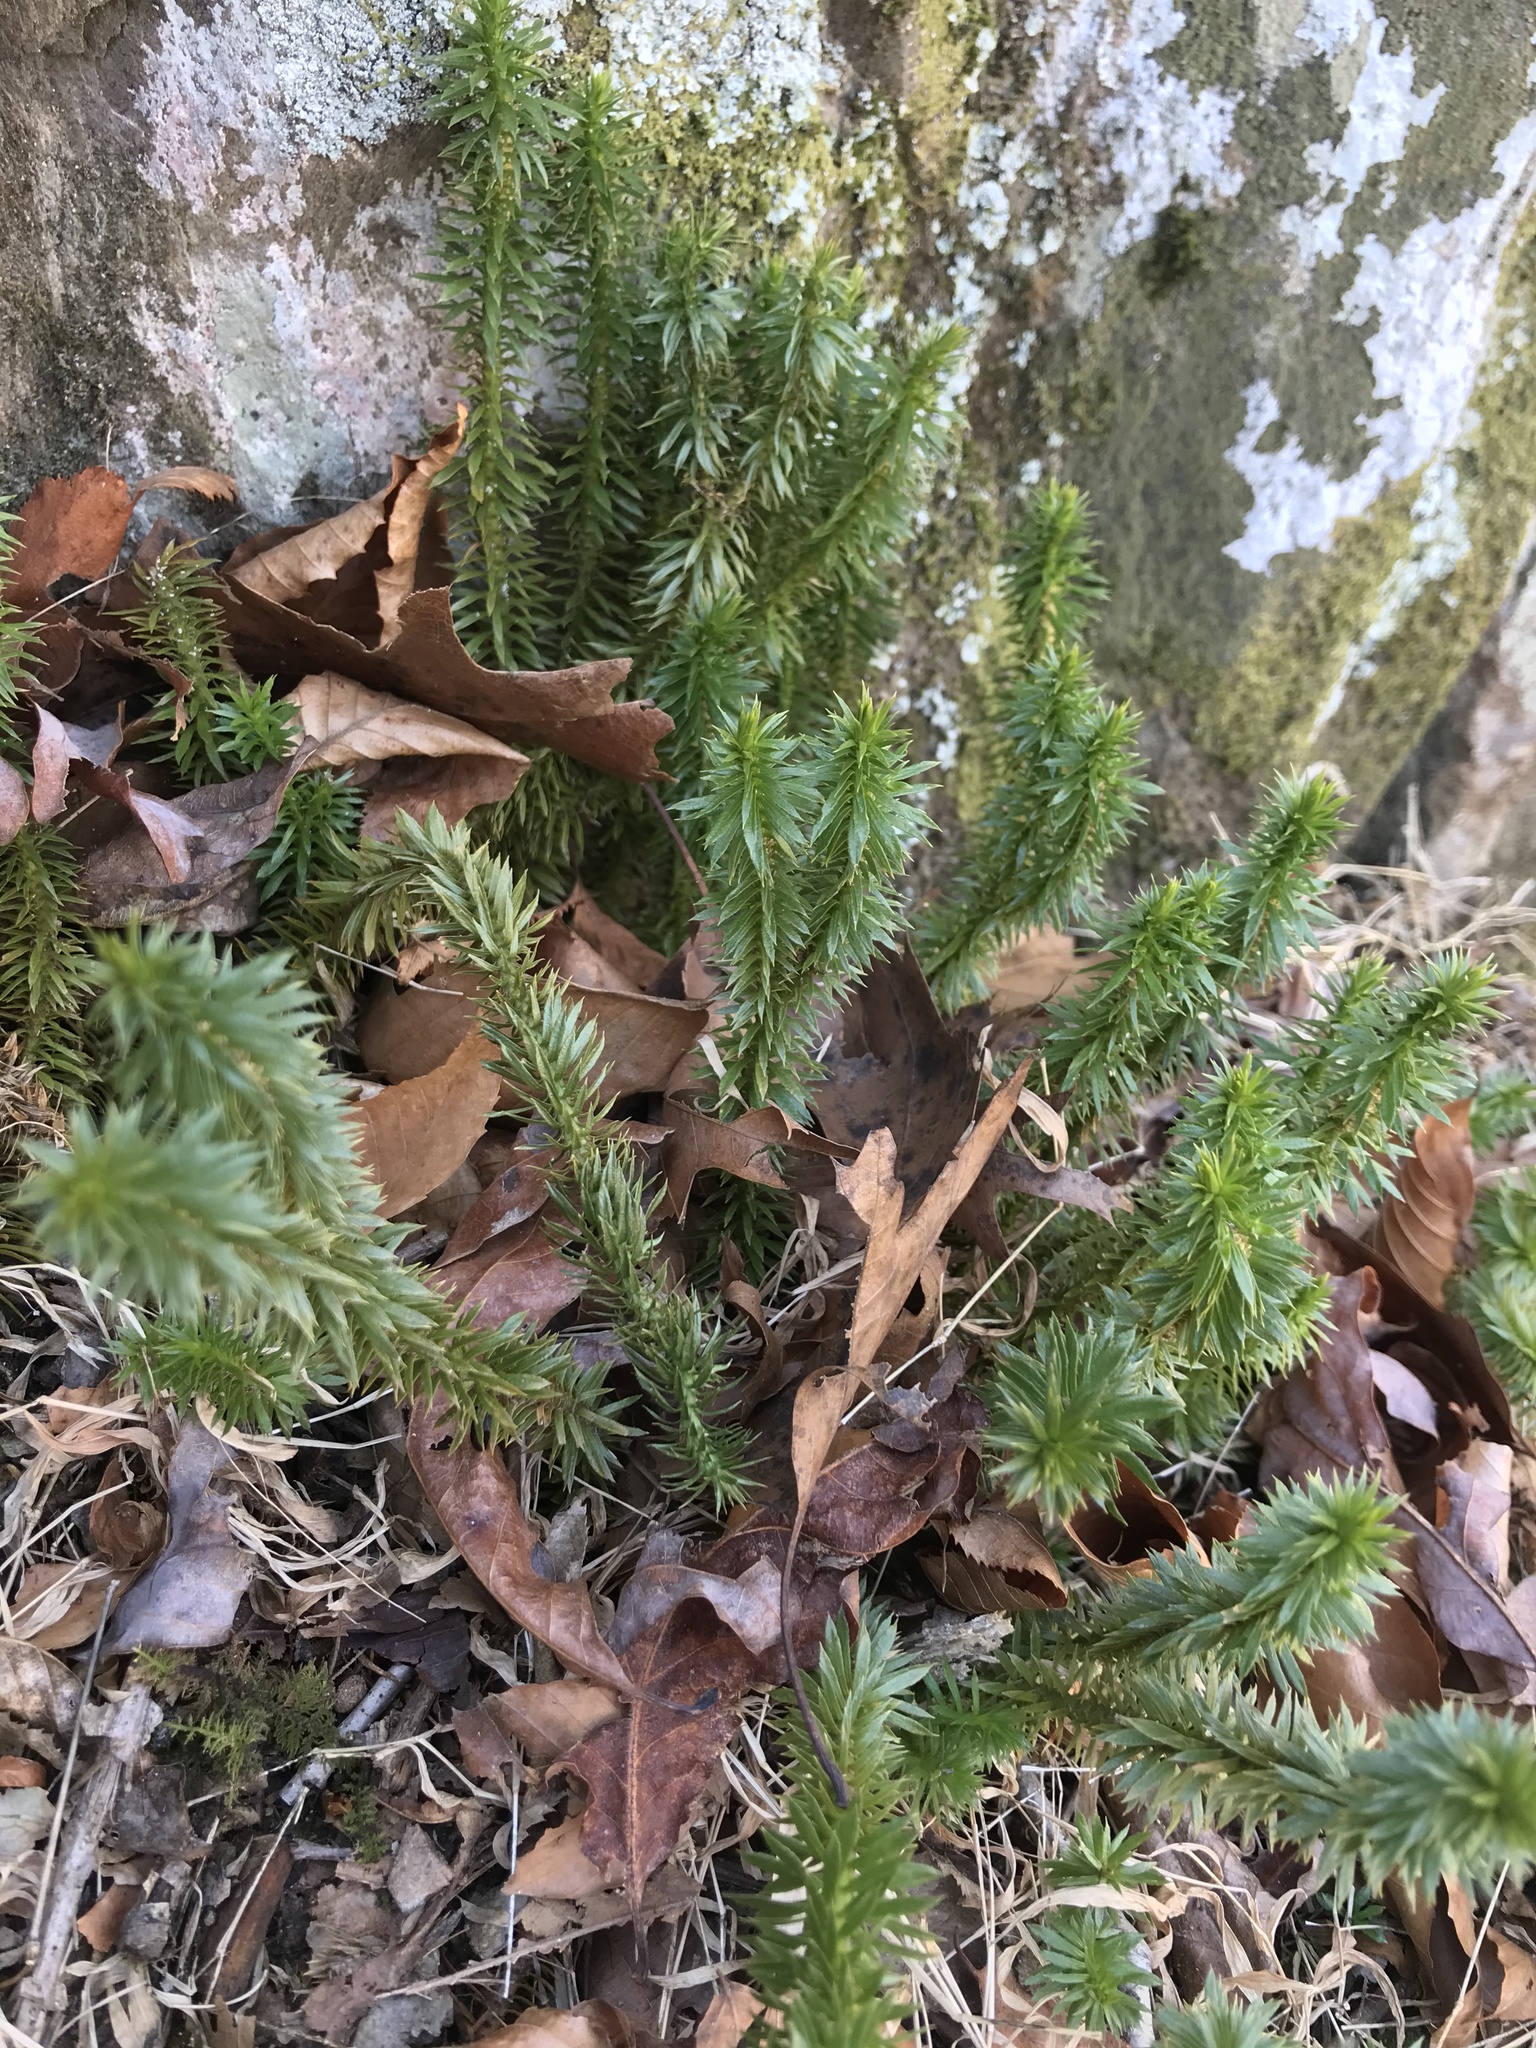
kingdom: Plantae
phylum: Tracheophyta
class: Lycopodiopsida
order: Lycopodiales
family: Lycopodiaceae
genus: Huperzia
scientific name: Huperzia lucidula
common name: Shining clubmoss
